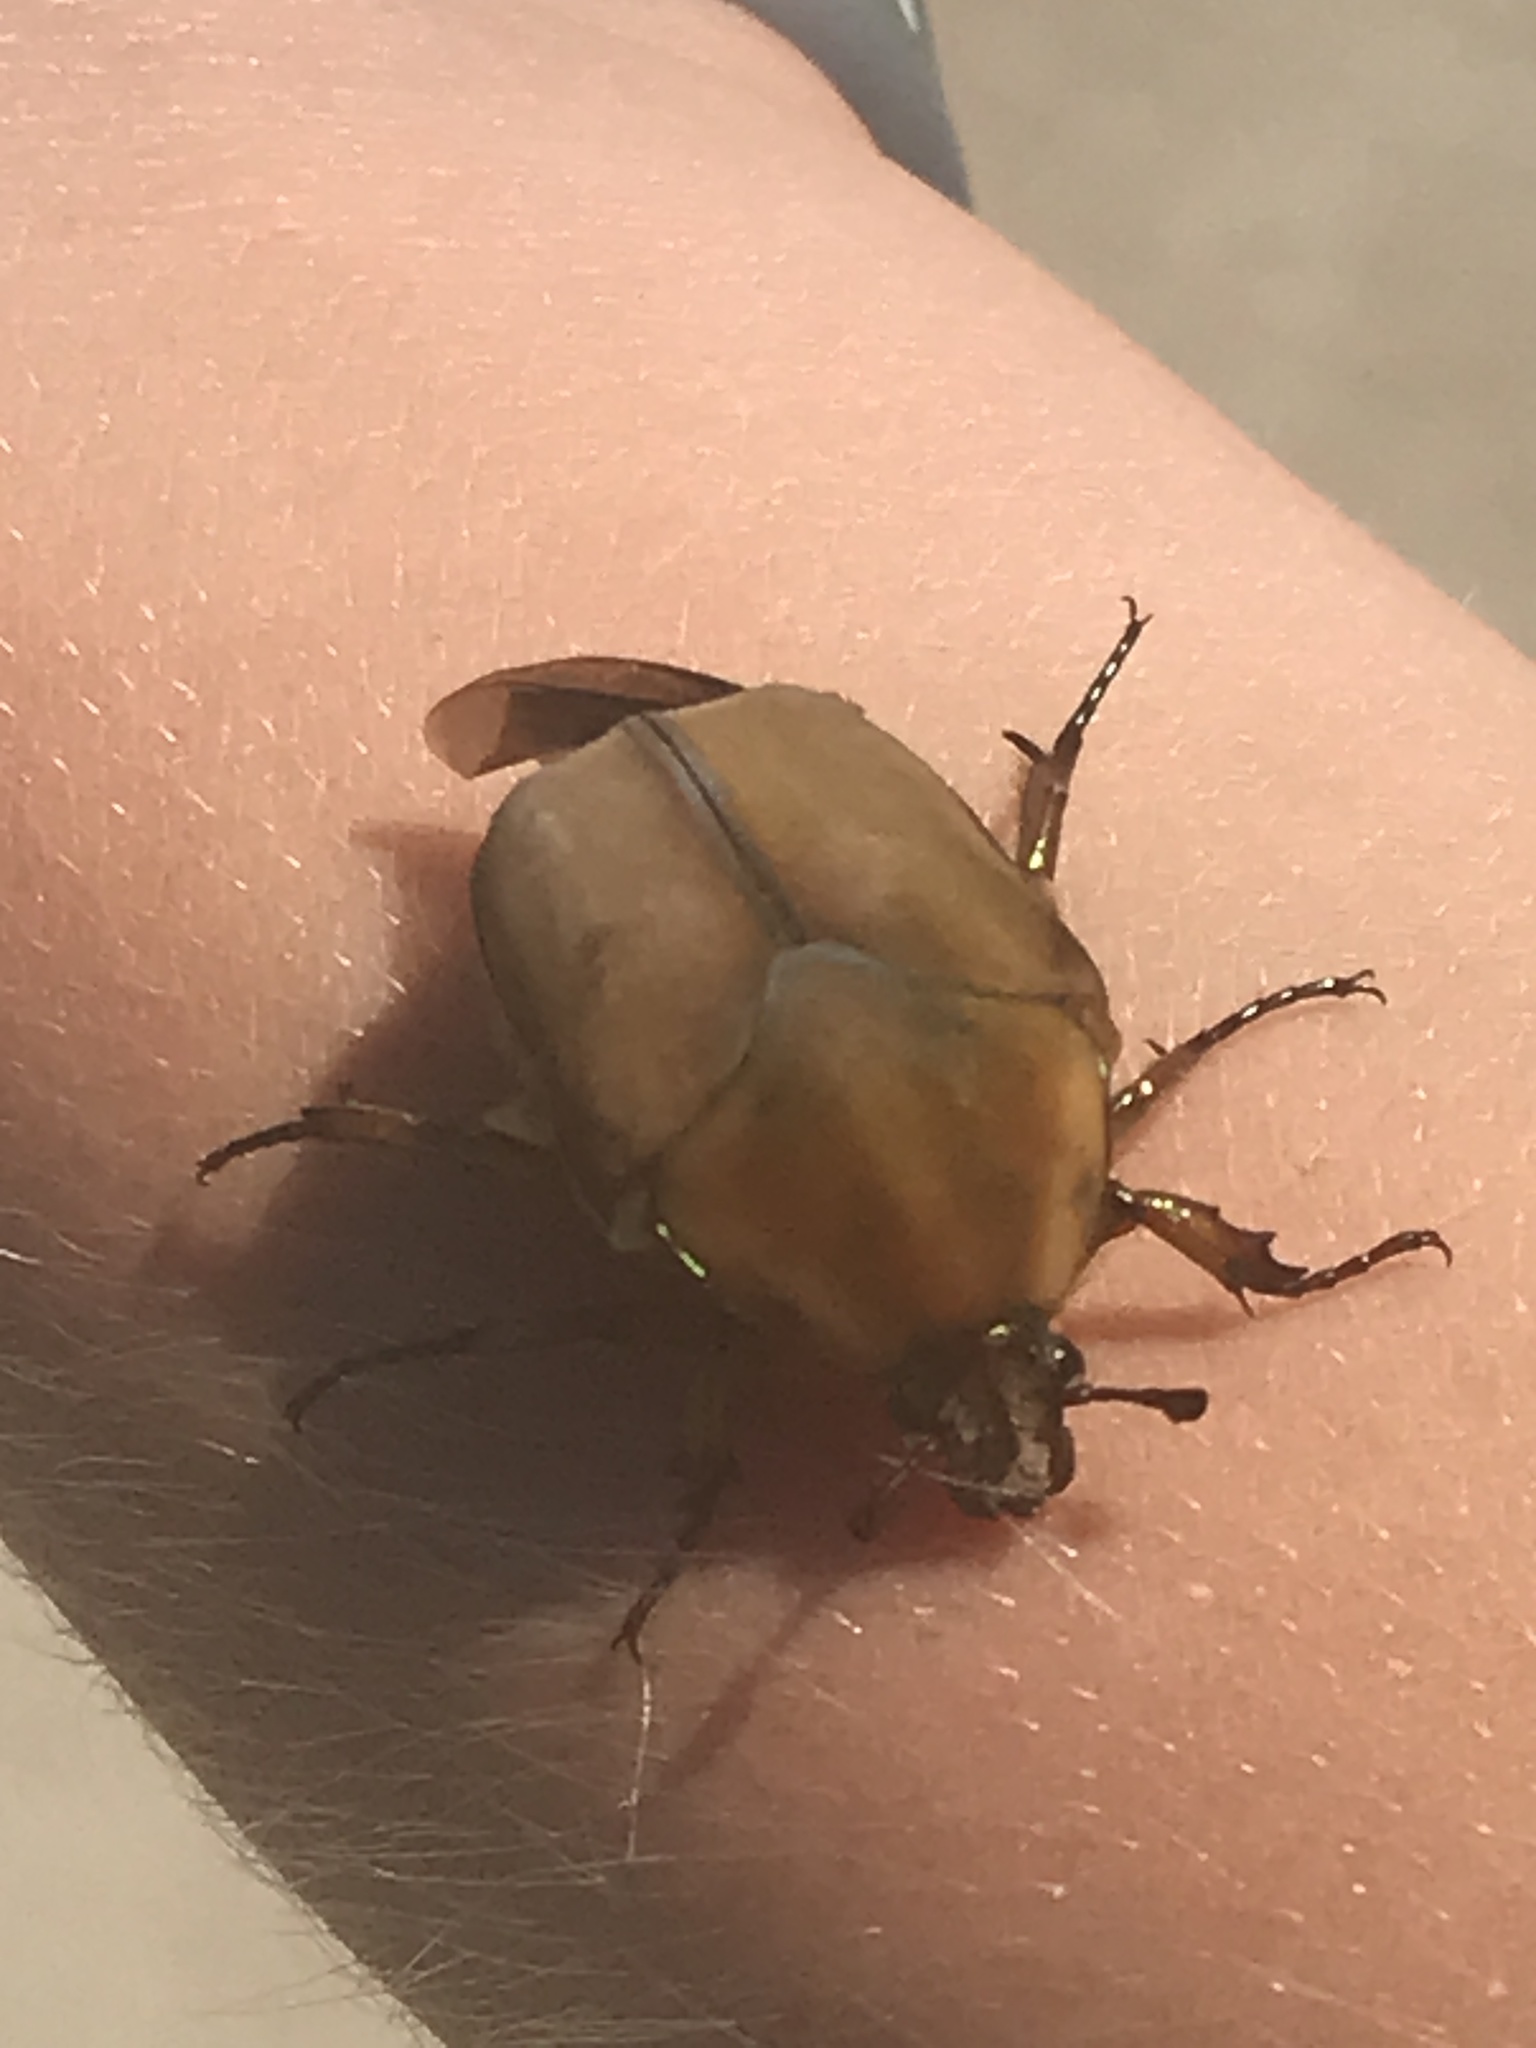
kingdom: Animalia
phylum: Arthropoda
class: Insecta
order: Coleoptera
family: Scarabaeidae
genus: Cotinis
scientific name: Cotinis nitida
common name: Common green june beetle
